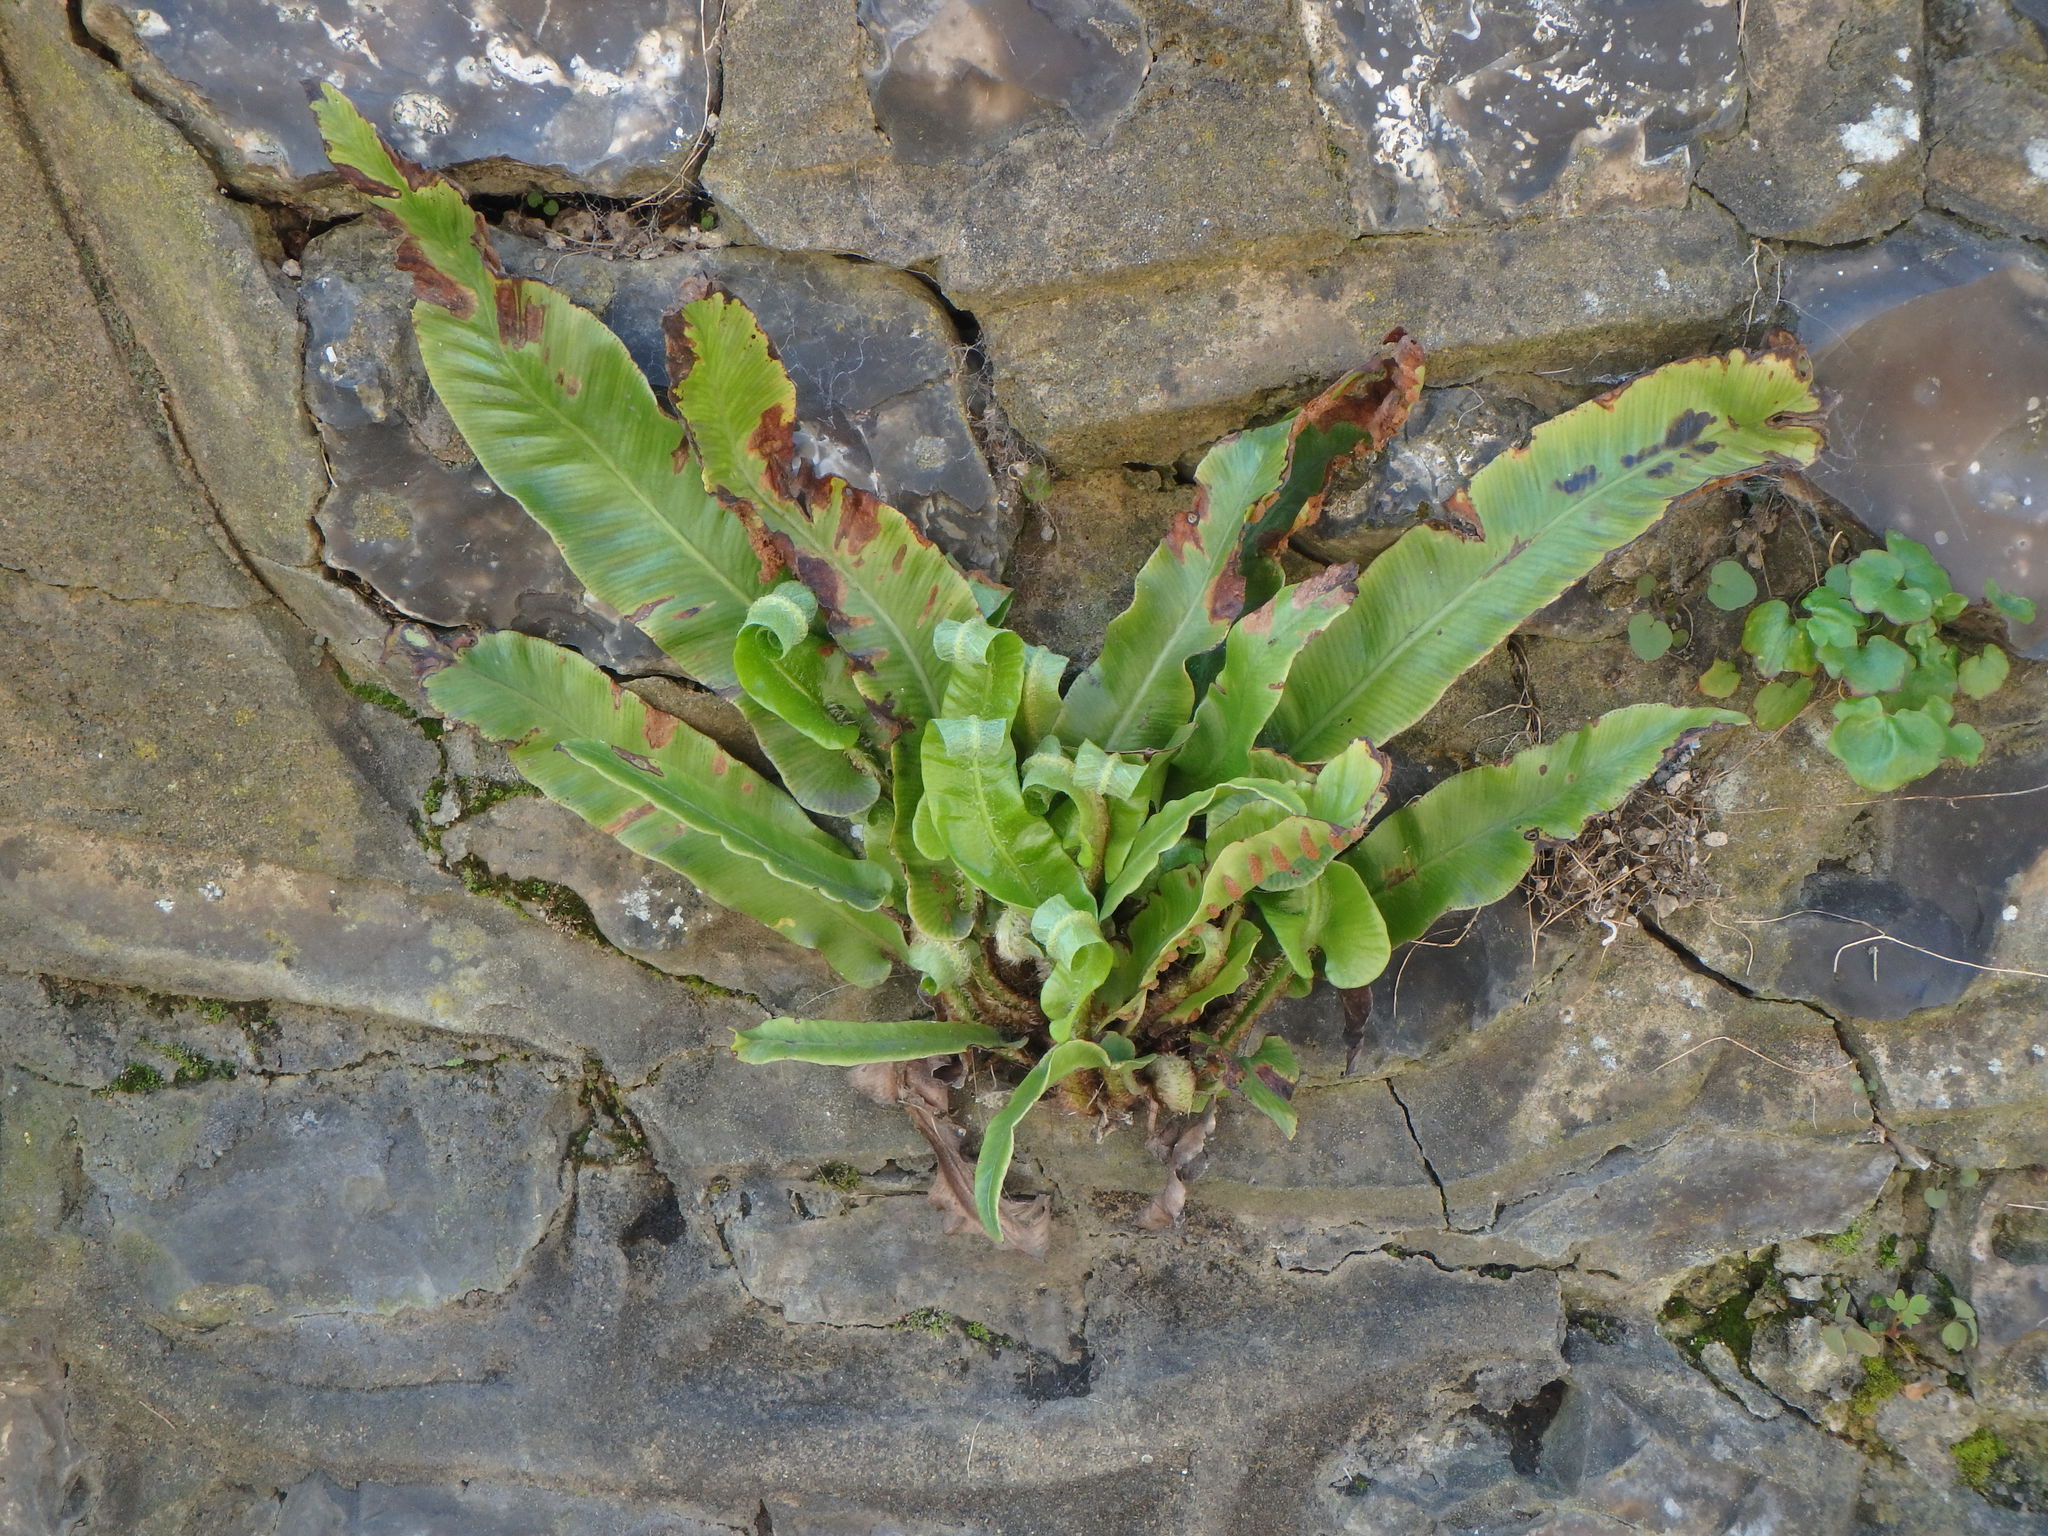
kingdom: Plantae
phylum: Tracheophyta
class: Polypodiopsida
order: Polypodiales
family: Aspleniaceae
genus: Asplenium
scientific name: Asplenium scolopendrium
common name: Hart's-tongue fern
